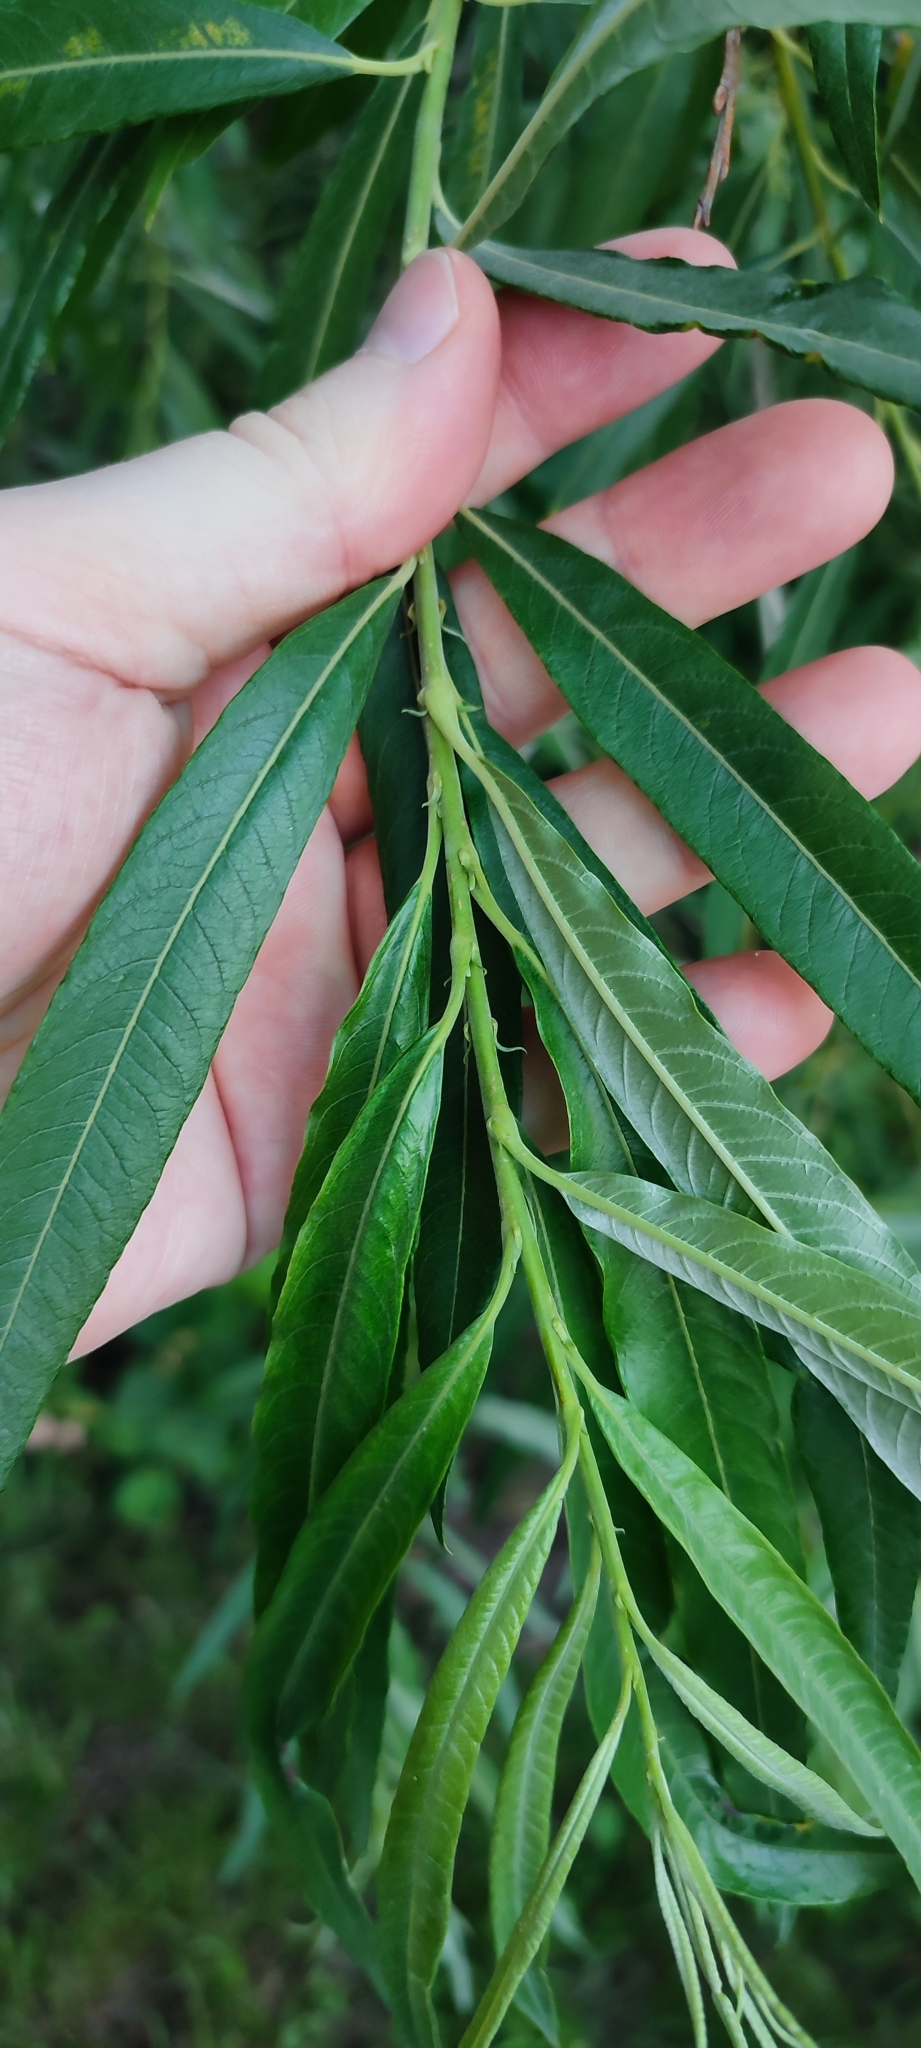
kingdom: Plantae
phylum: Tracheophyta
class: Magnoliopsida
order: Malpighiales
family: Salicaceae
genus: Salix
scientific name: Salix viminalis
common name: Osier
